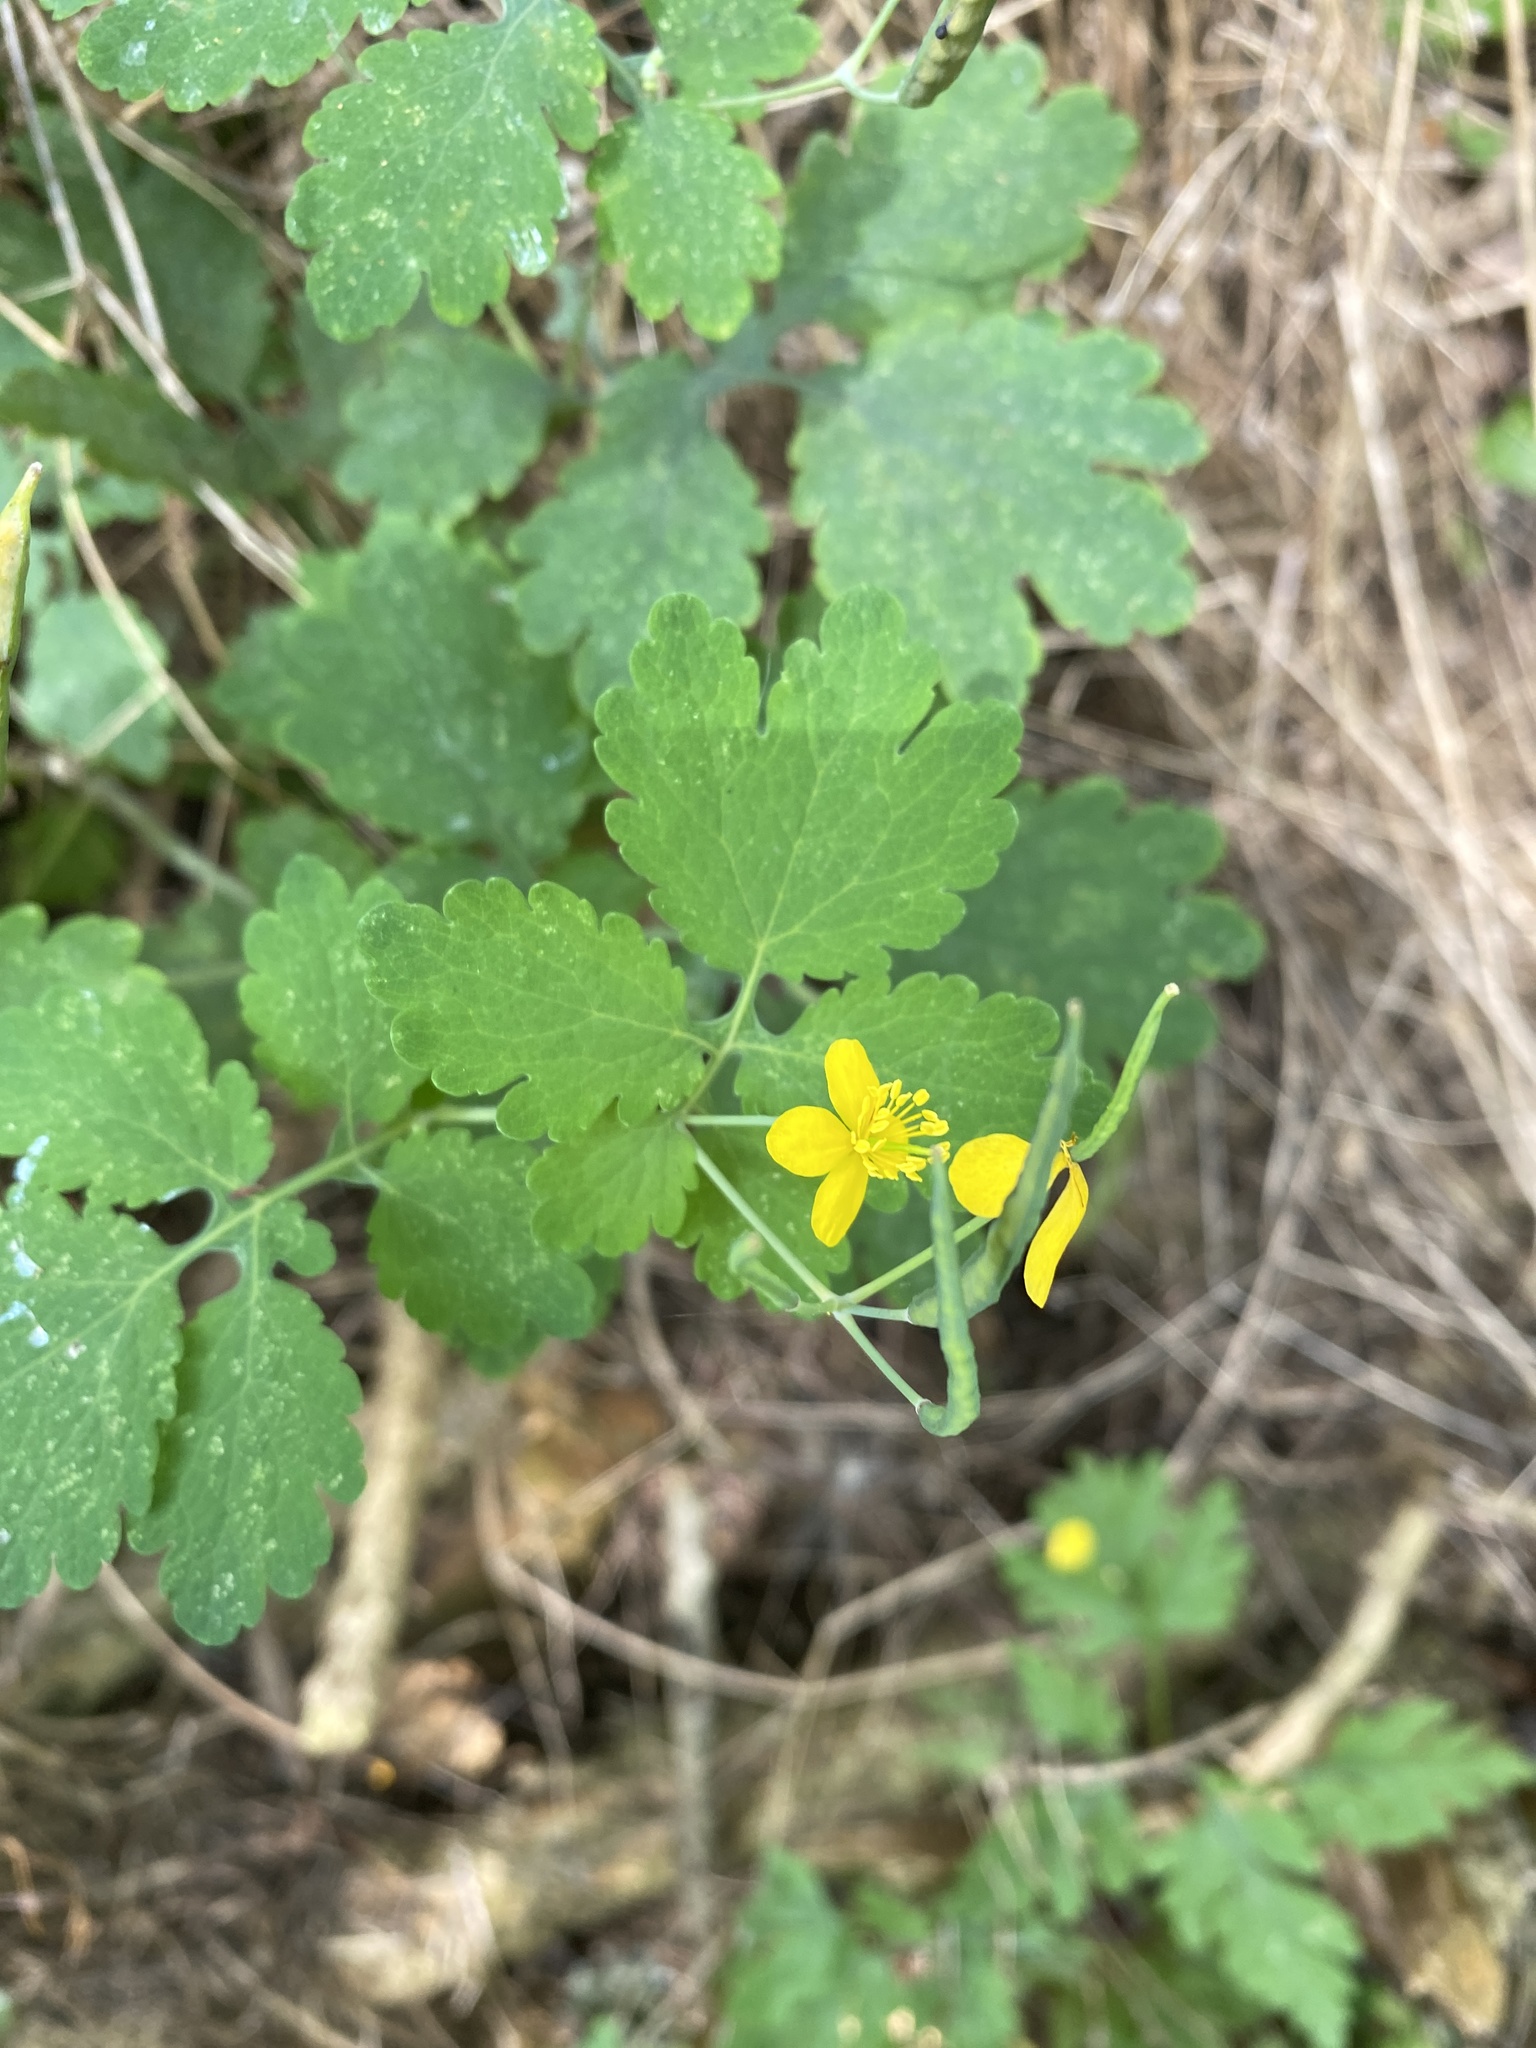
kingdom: Plantae
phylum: Tracheophyta
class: Magnoliopsida
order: Ranunculales
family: Papaveraceae
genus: Chelidonium
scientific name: Chelidonium majus
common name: Greater celandine
